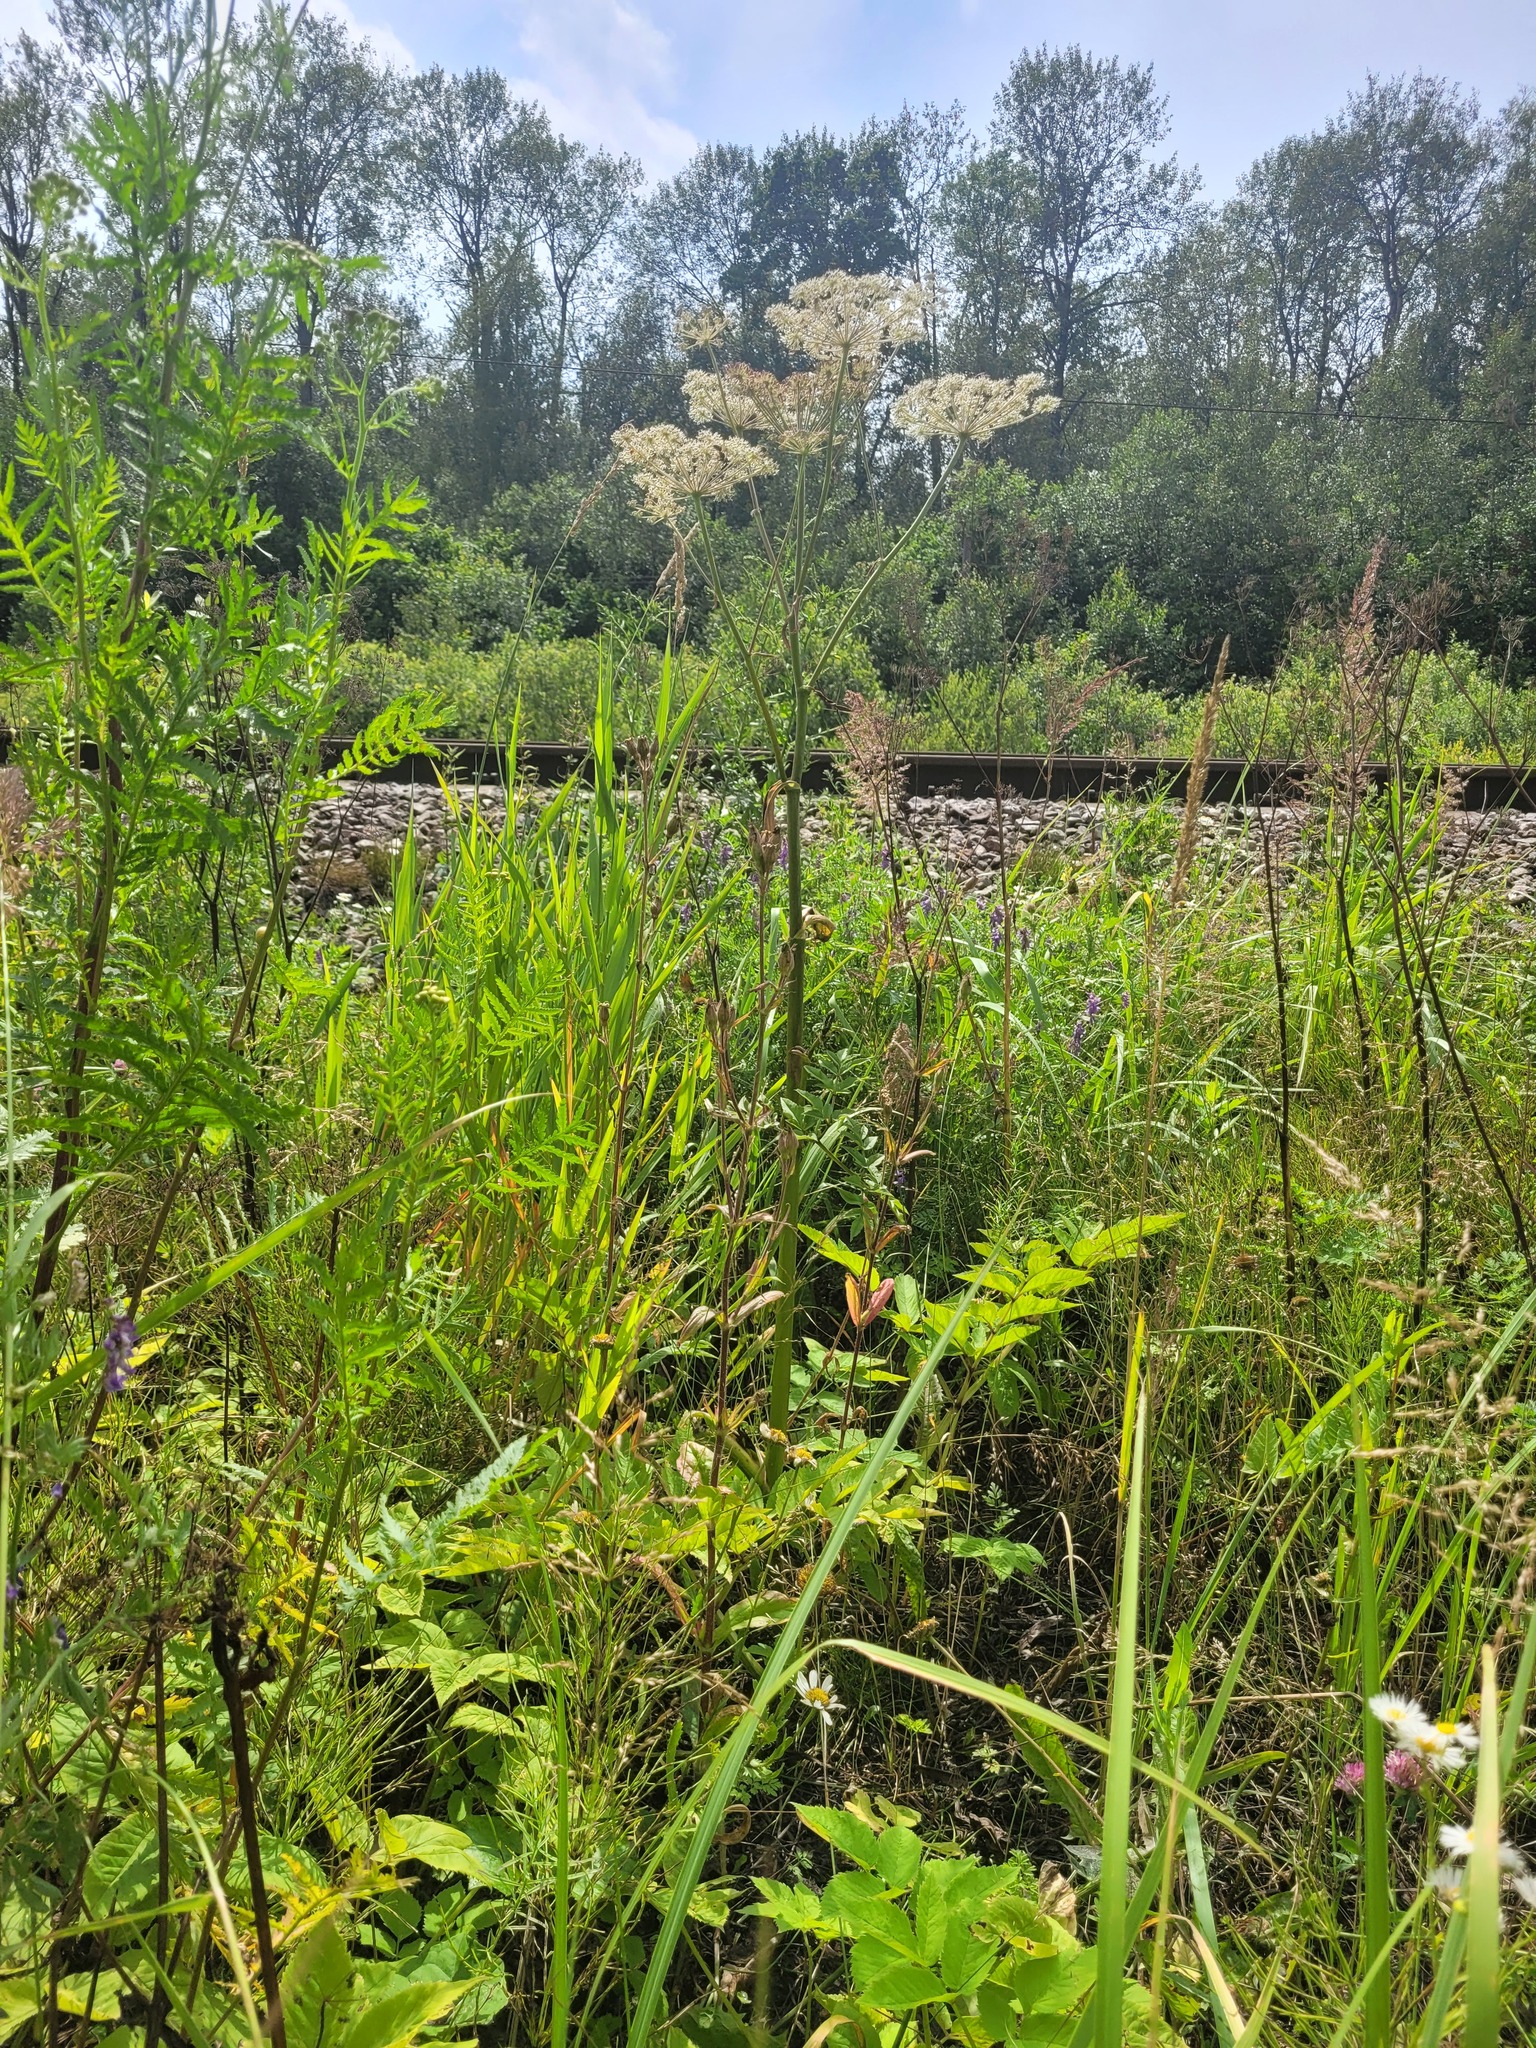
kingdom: Plantae
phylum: Tracheophyta
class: Magnoliopsida
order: Caryophyllales
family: Caryophyllaceae
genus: Silene
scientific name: Silene noctiflora
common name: Night-flowering catchfly
